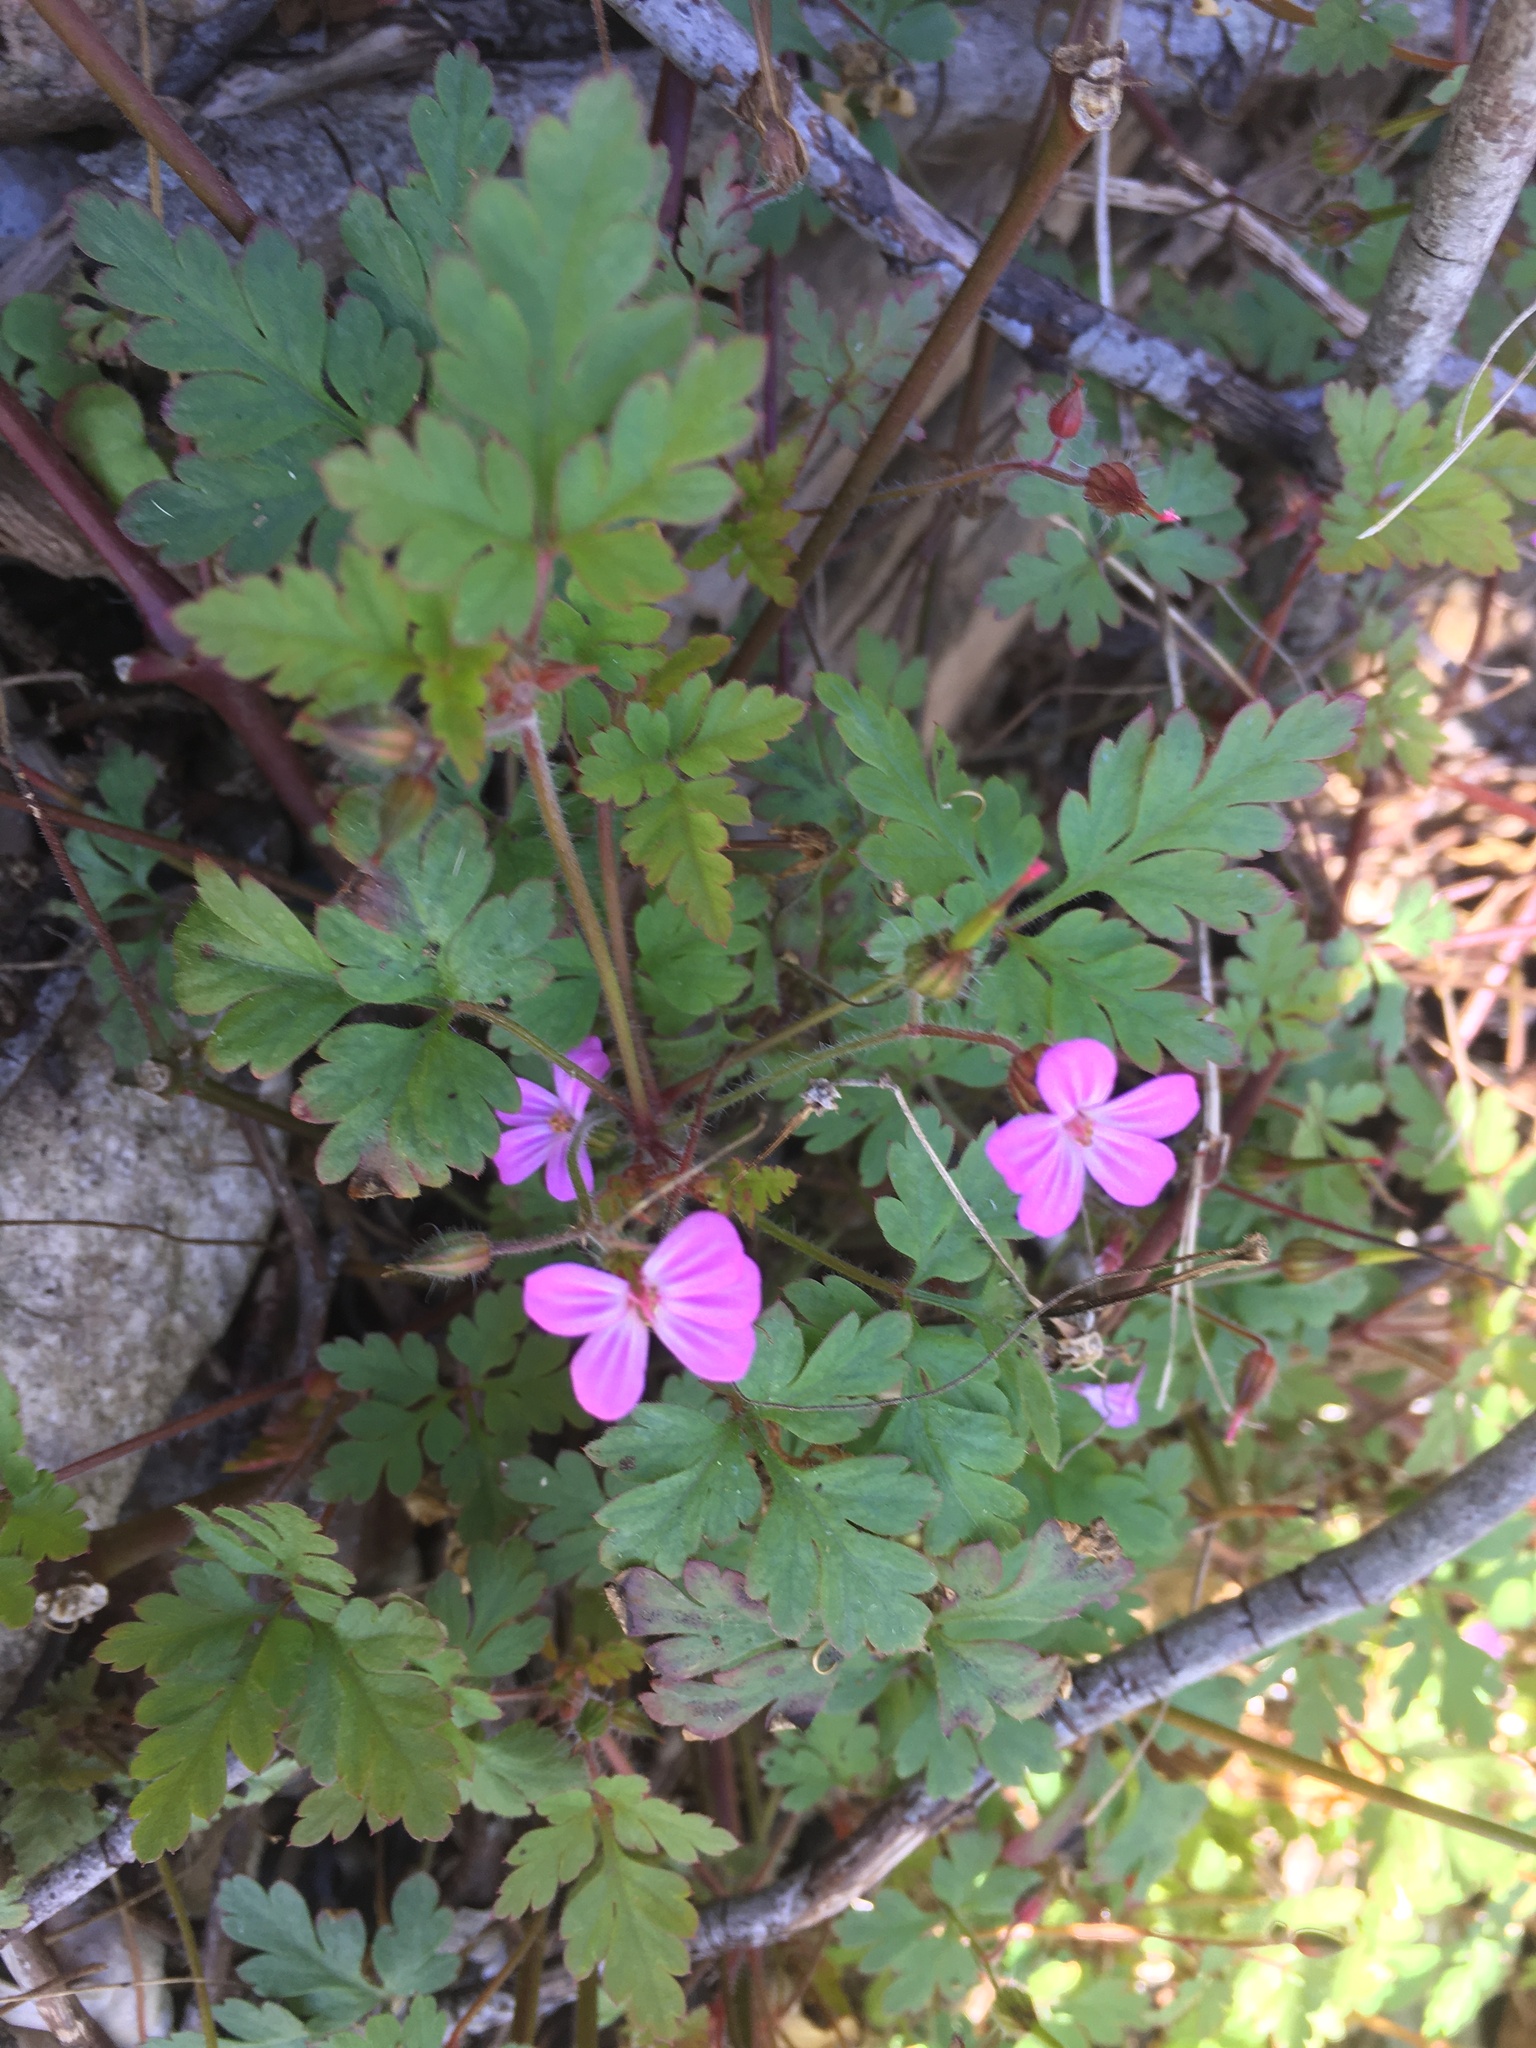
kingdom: Plantae
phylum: Tracheophyta
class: Magnoliopsida
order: Geraniales
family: Geraniaceae
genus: Geranium
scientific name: Geranium robertianum
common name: Herb-robert
